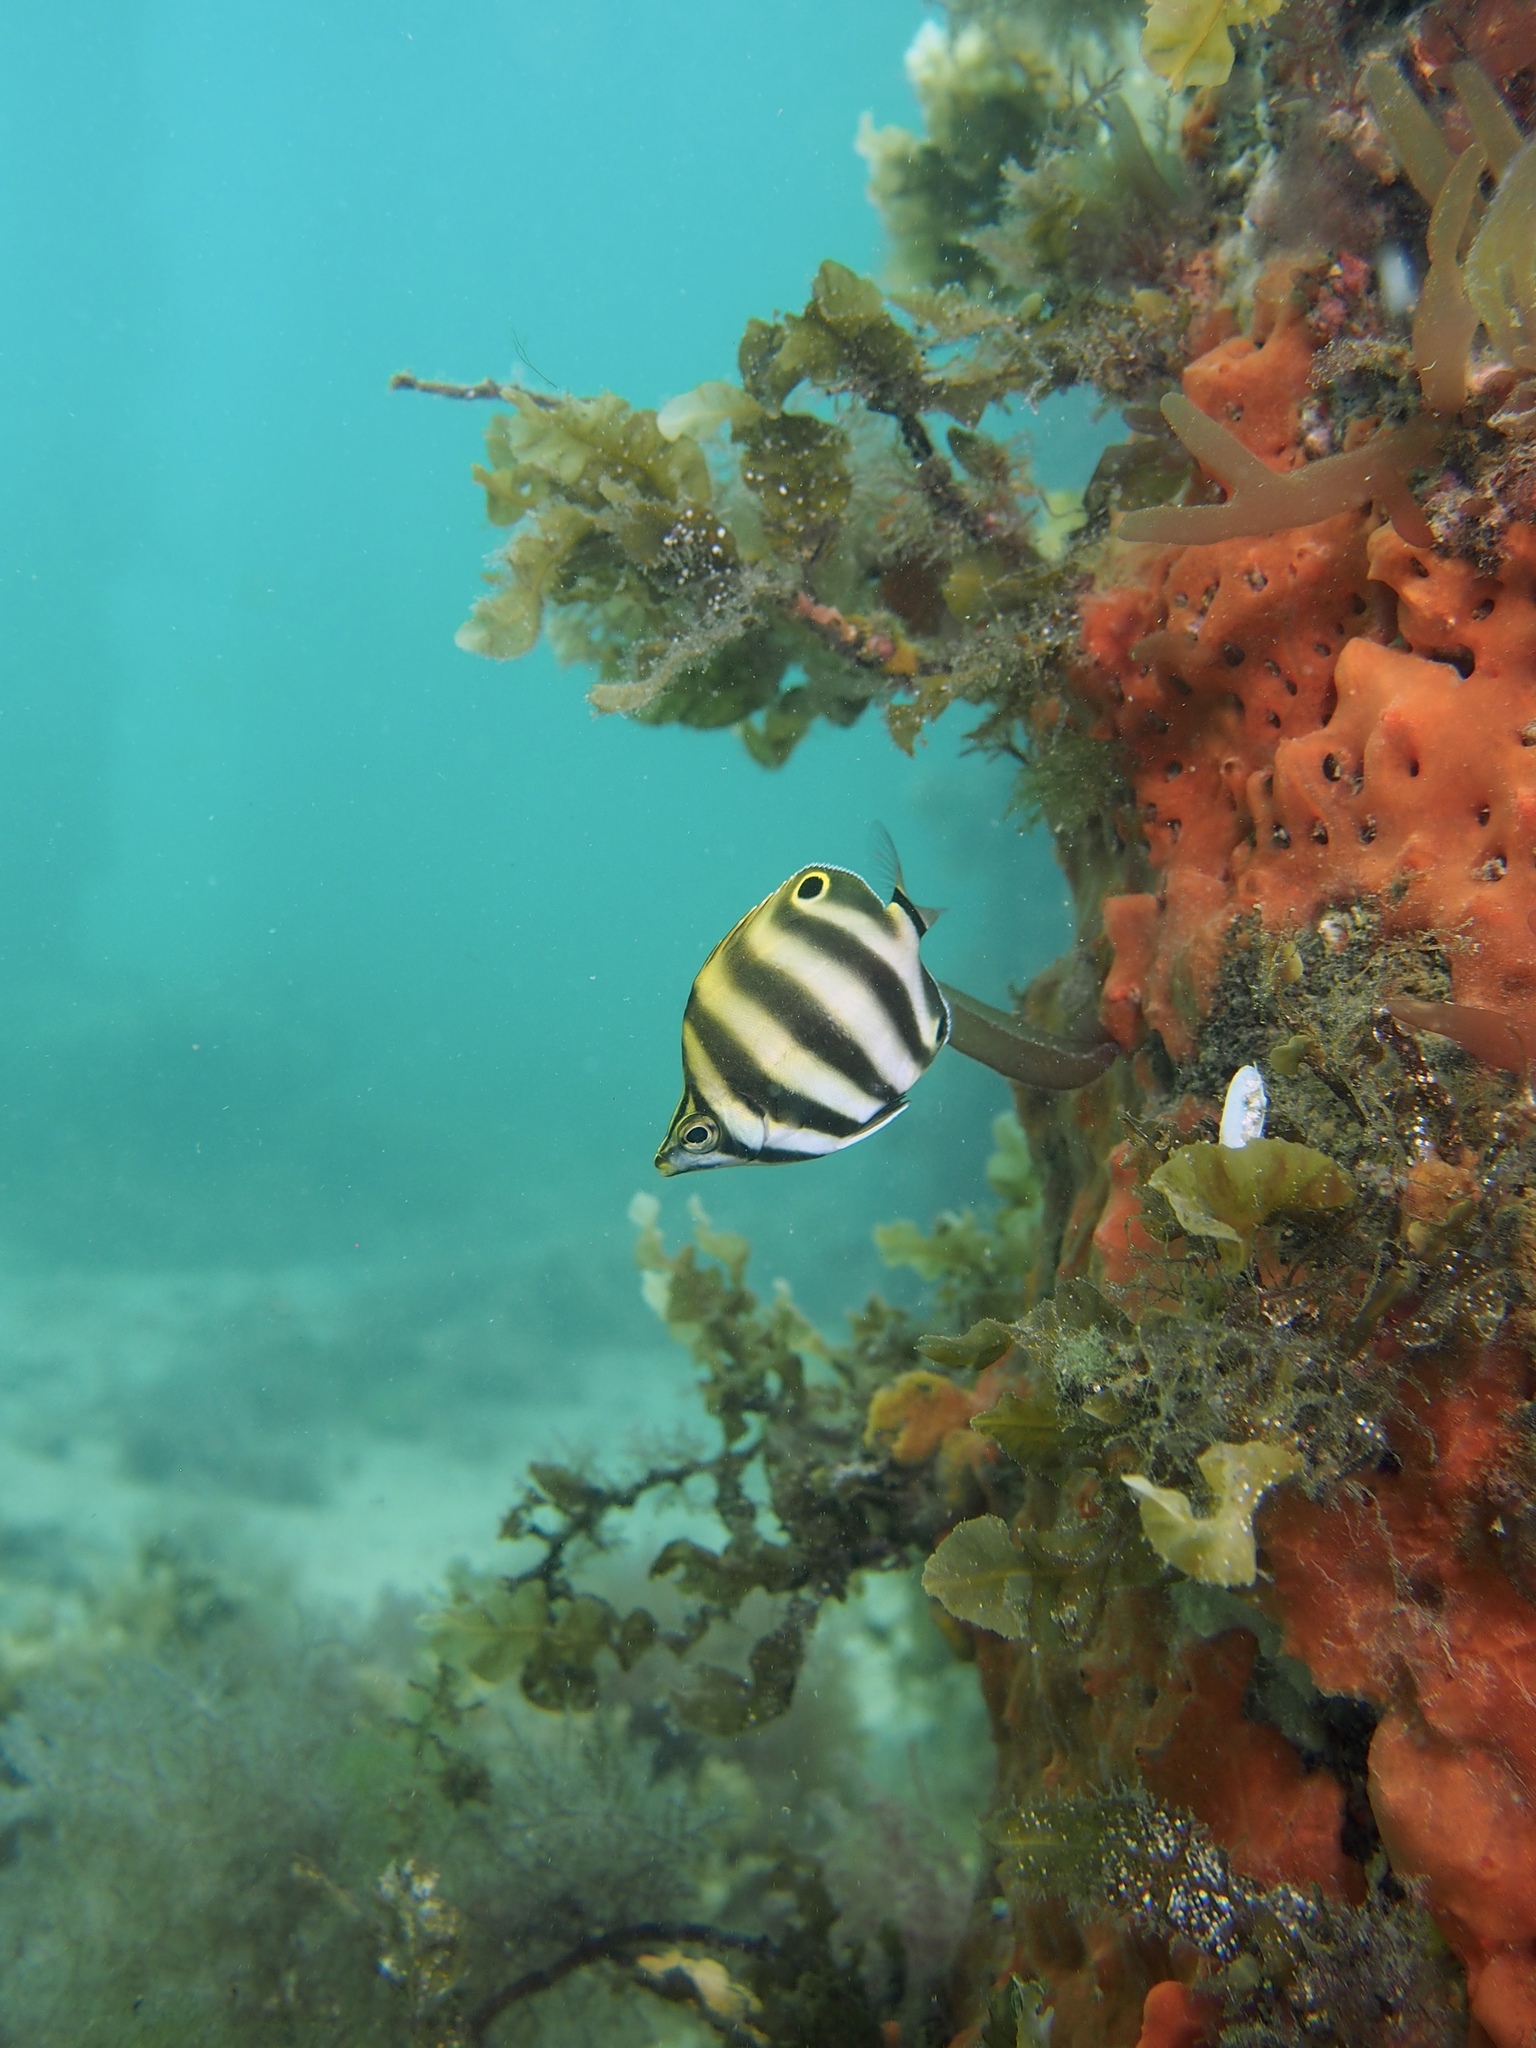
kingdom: Animalia
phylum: Chordata
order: Perciformes
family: Kyphosidae
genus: Tilodon
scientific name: Tilodon sexfasciatus
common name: Moonlighter
